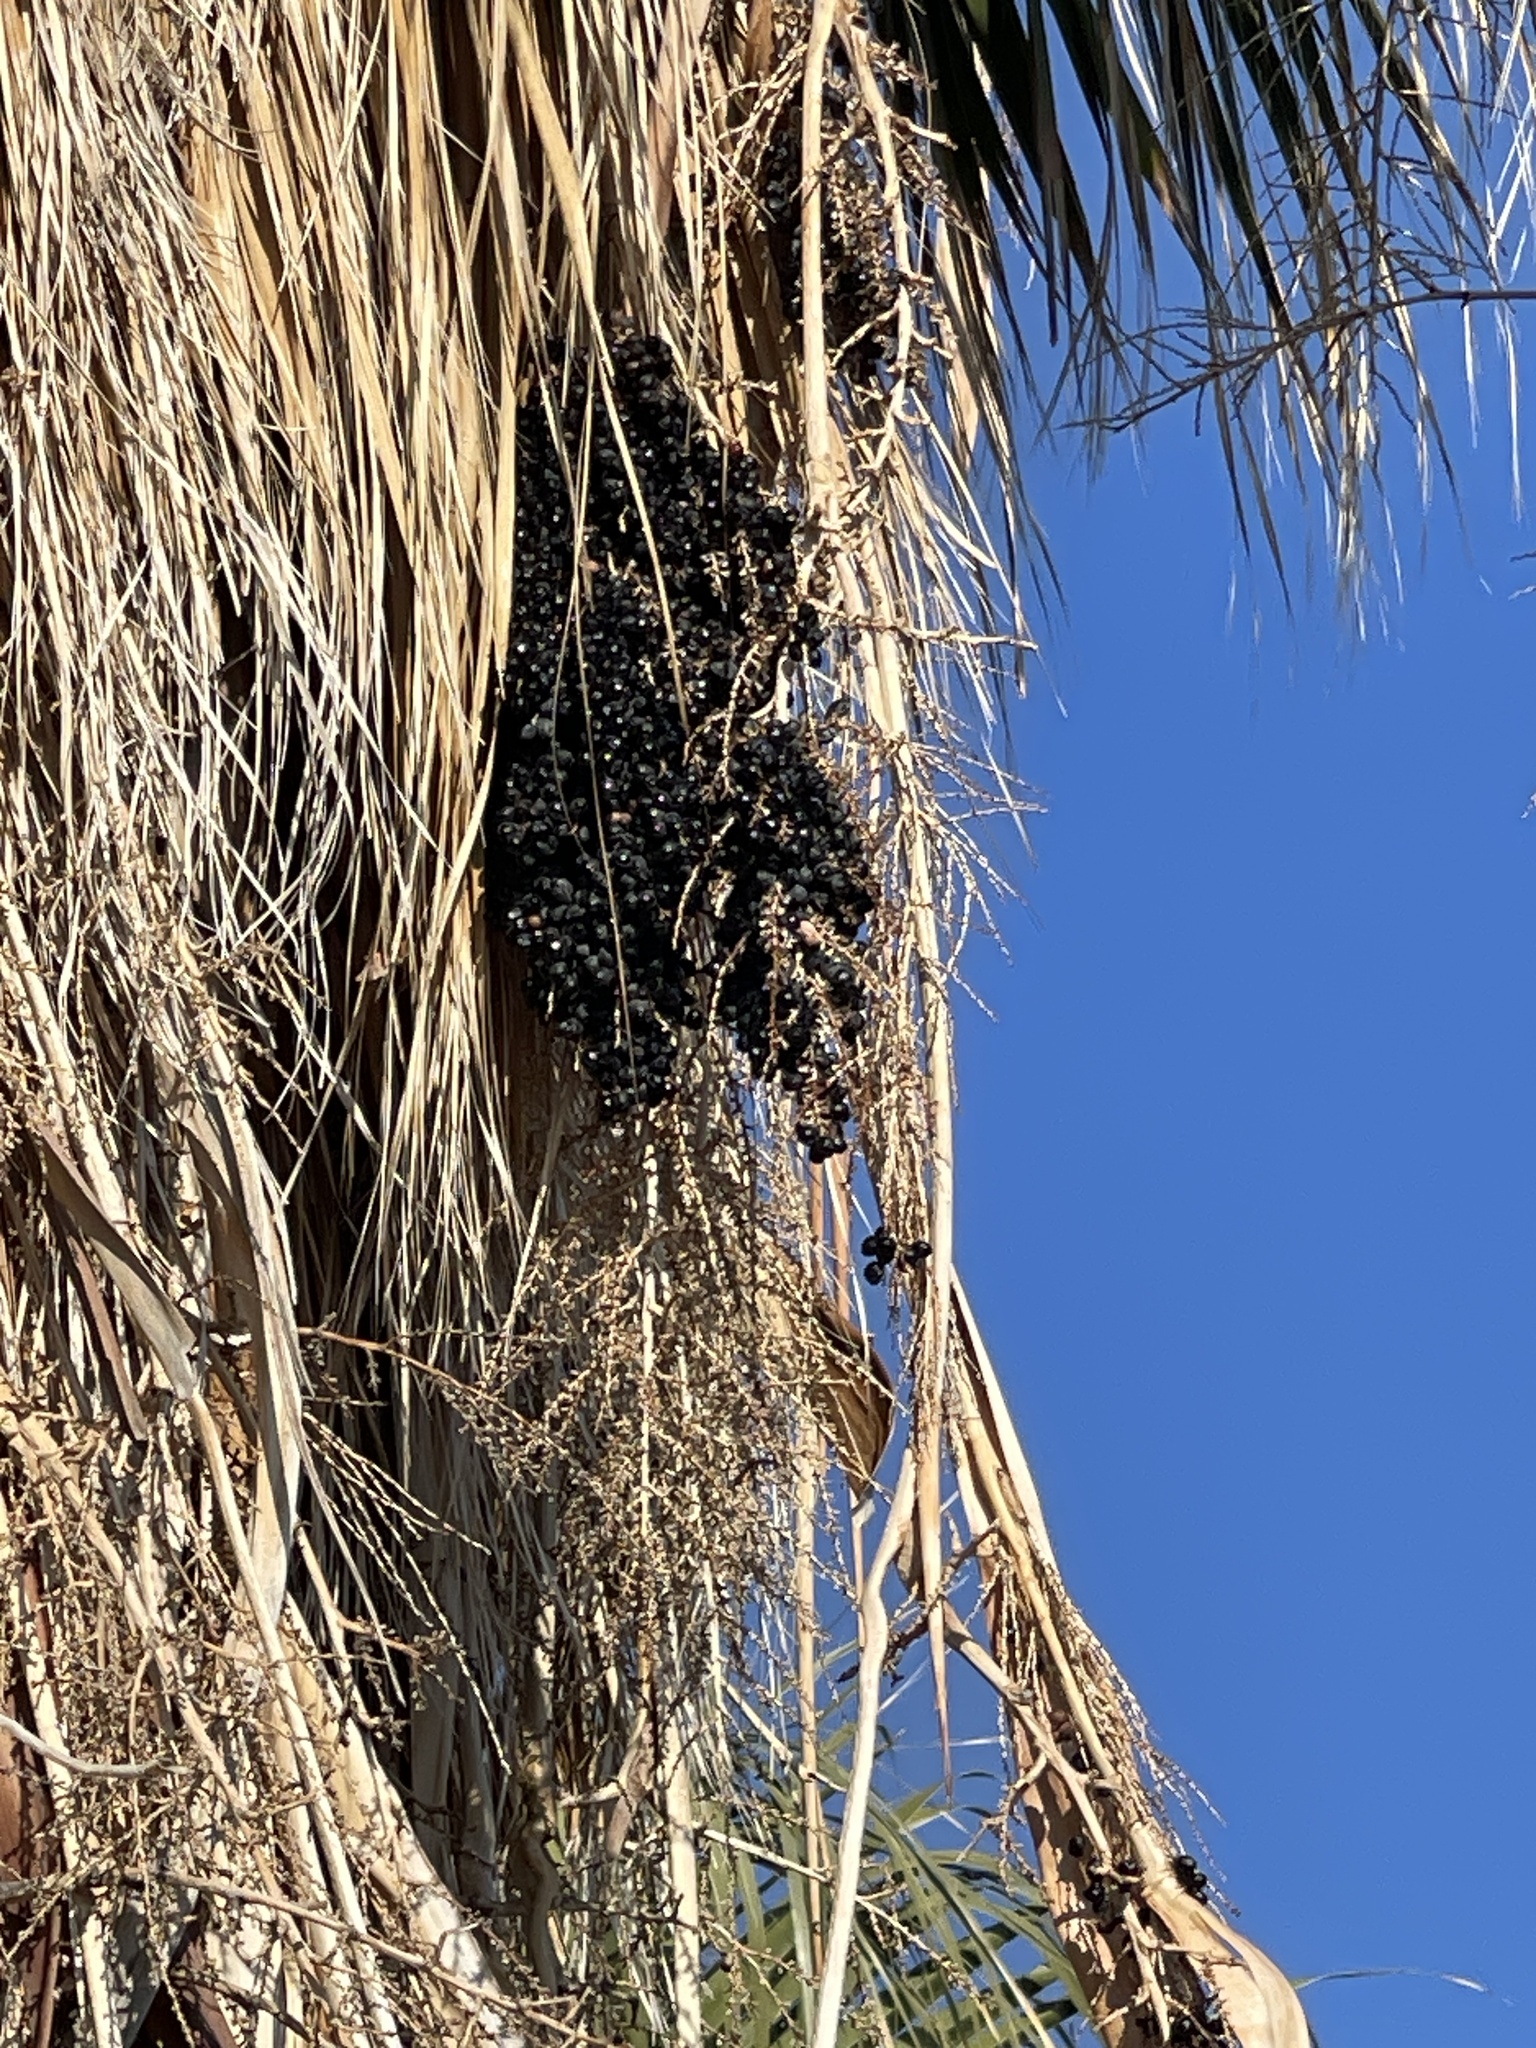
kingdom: Plantae
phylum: Tracheophyta
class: Liliopsida
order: Arecales
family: Arecaceae
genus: Washingtonia
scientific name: Washingtonia filifera
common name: California fan palm
